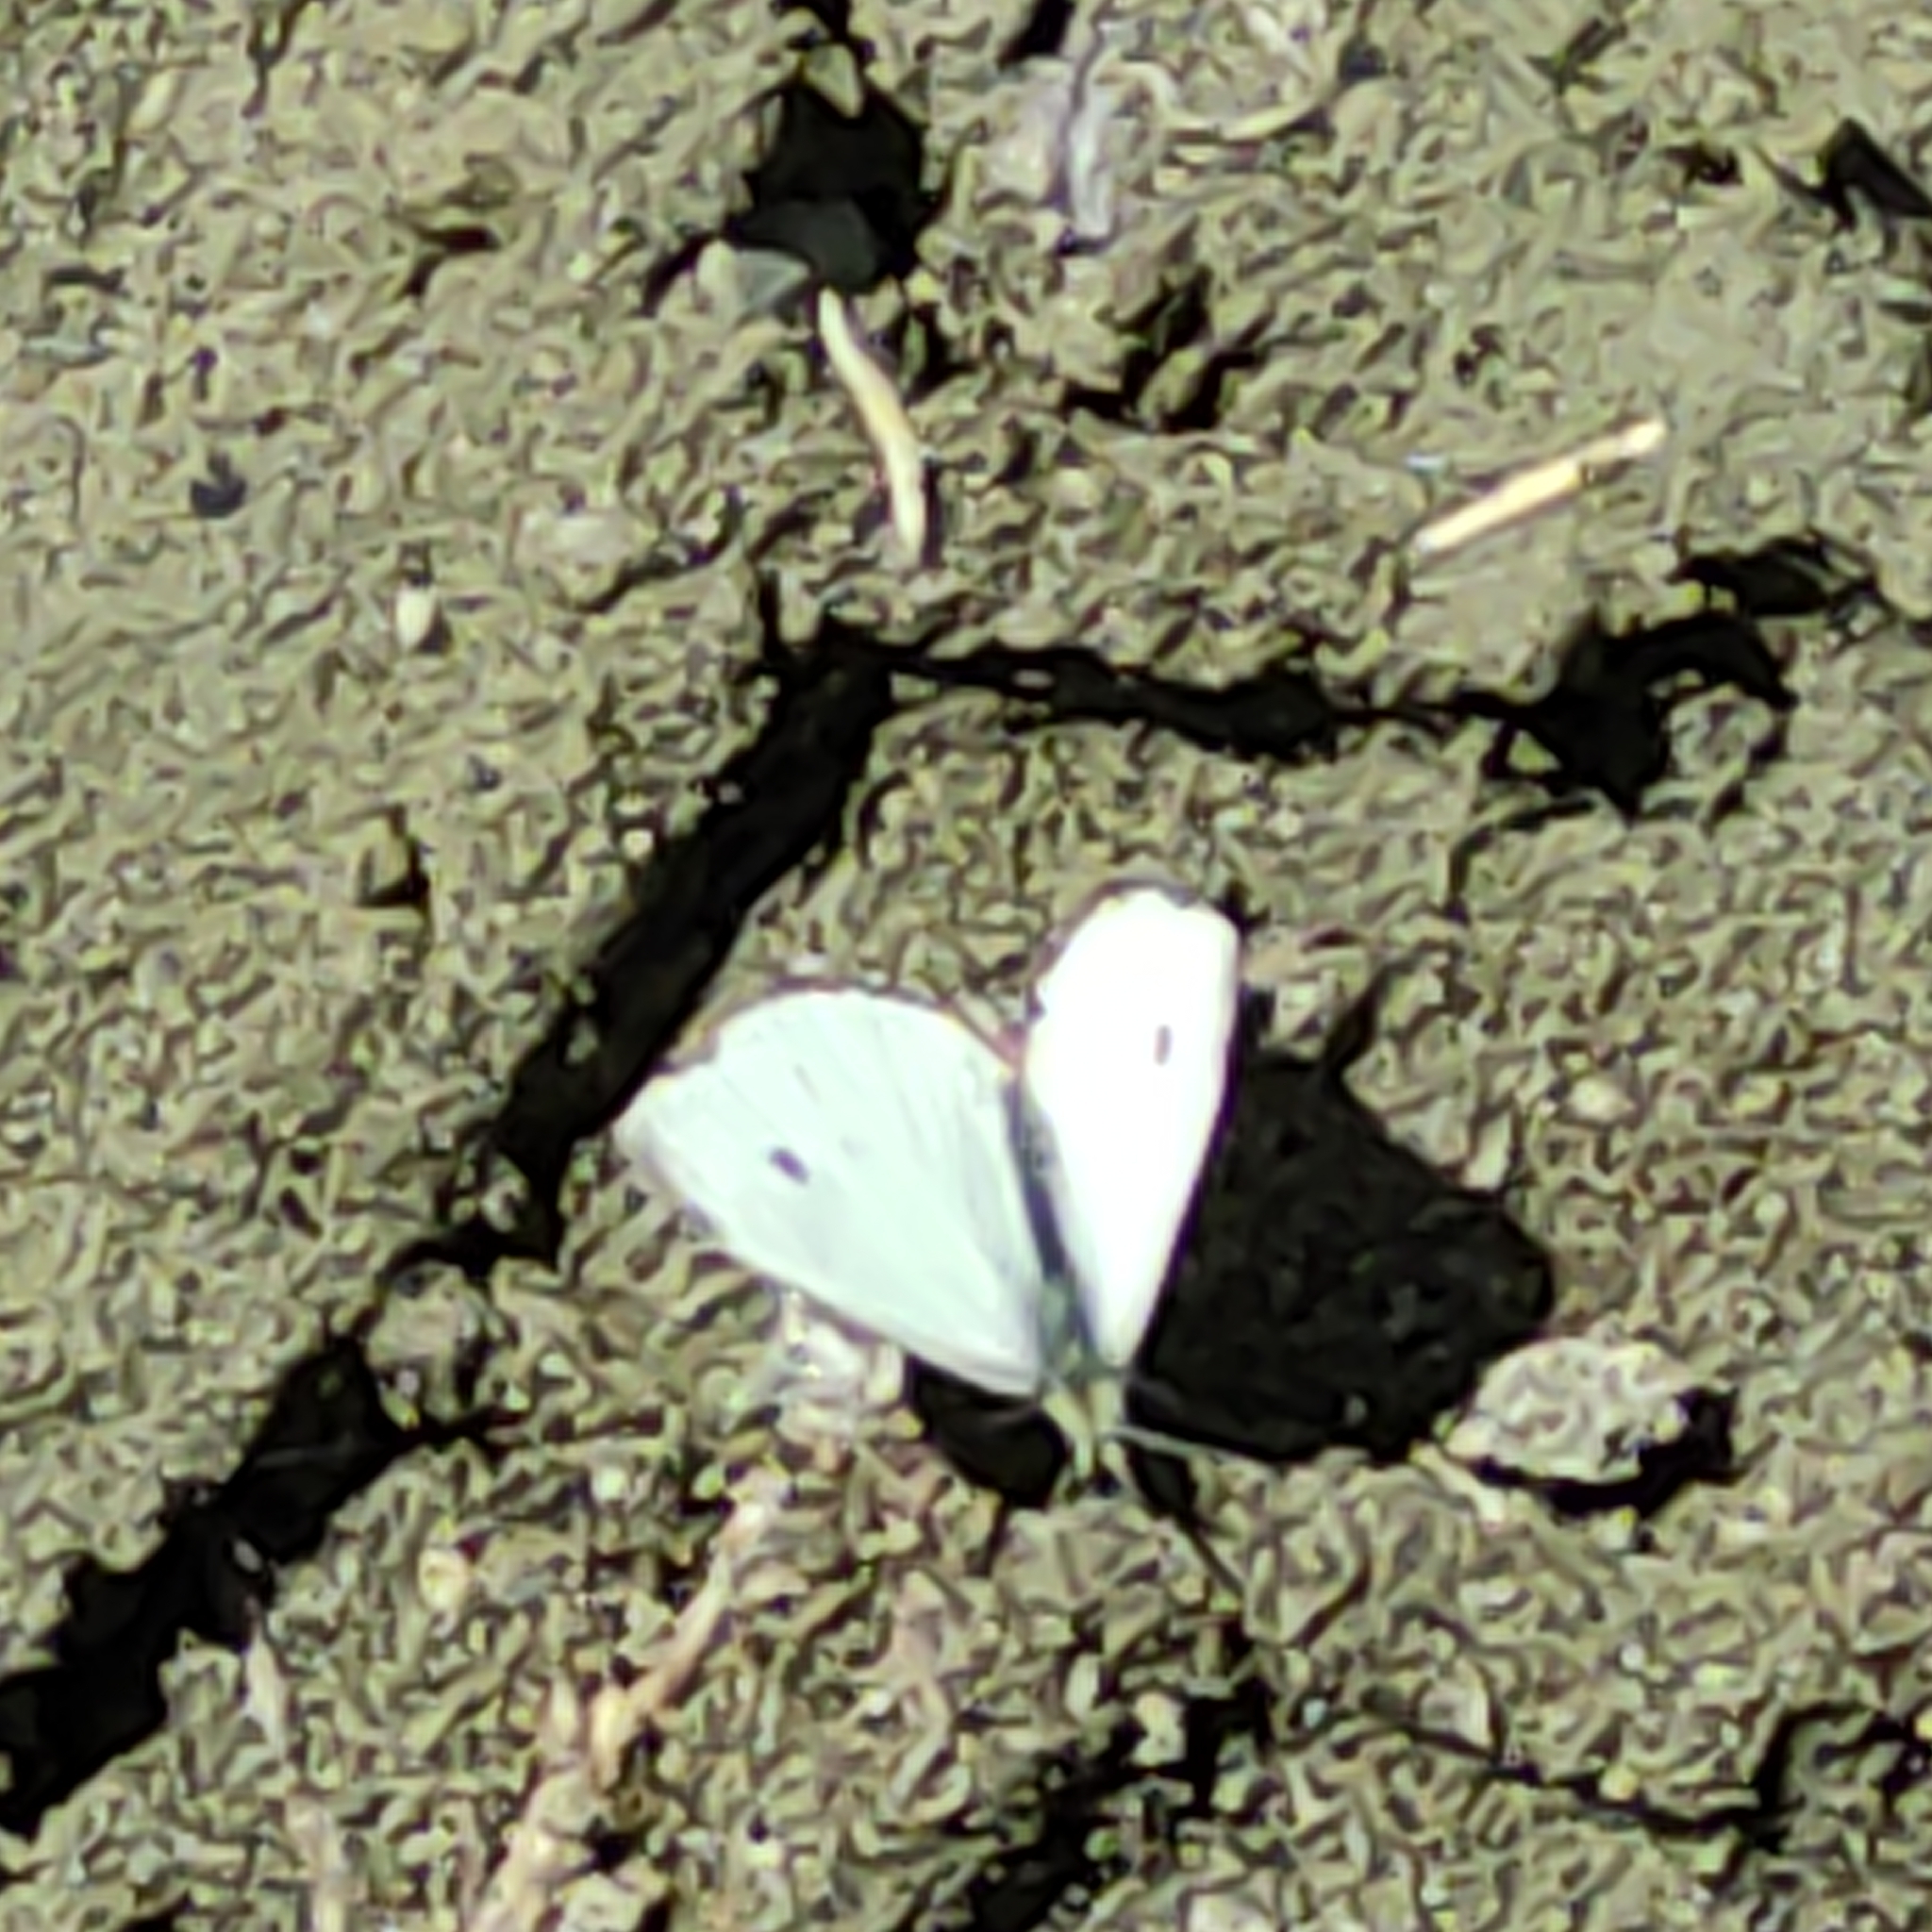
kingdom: Animalia
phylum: Arthropoda
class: Insecta
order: Lepidoptera
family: Pieridae
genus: Pieris
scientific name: Pieris rapae
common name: Small white
